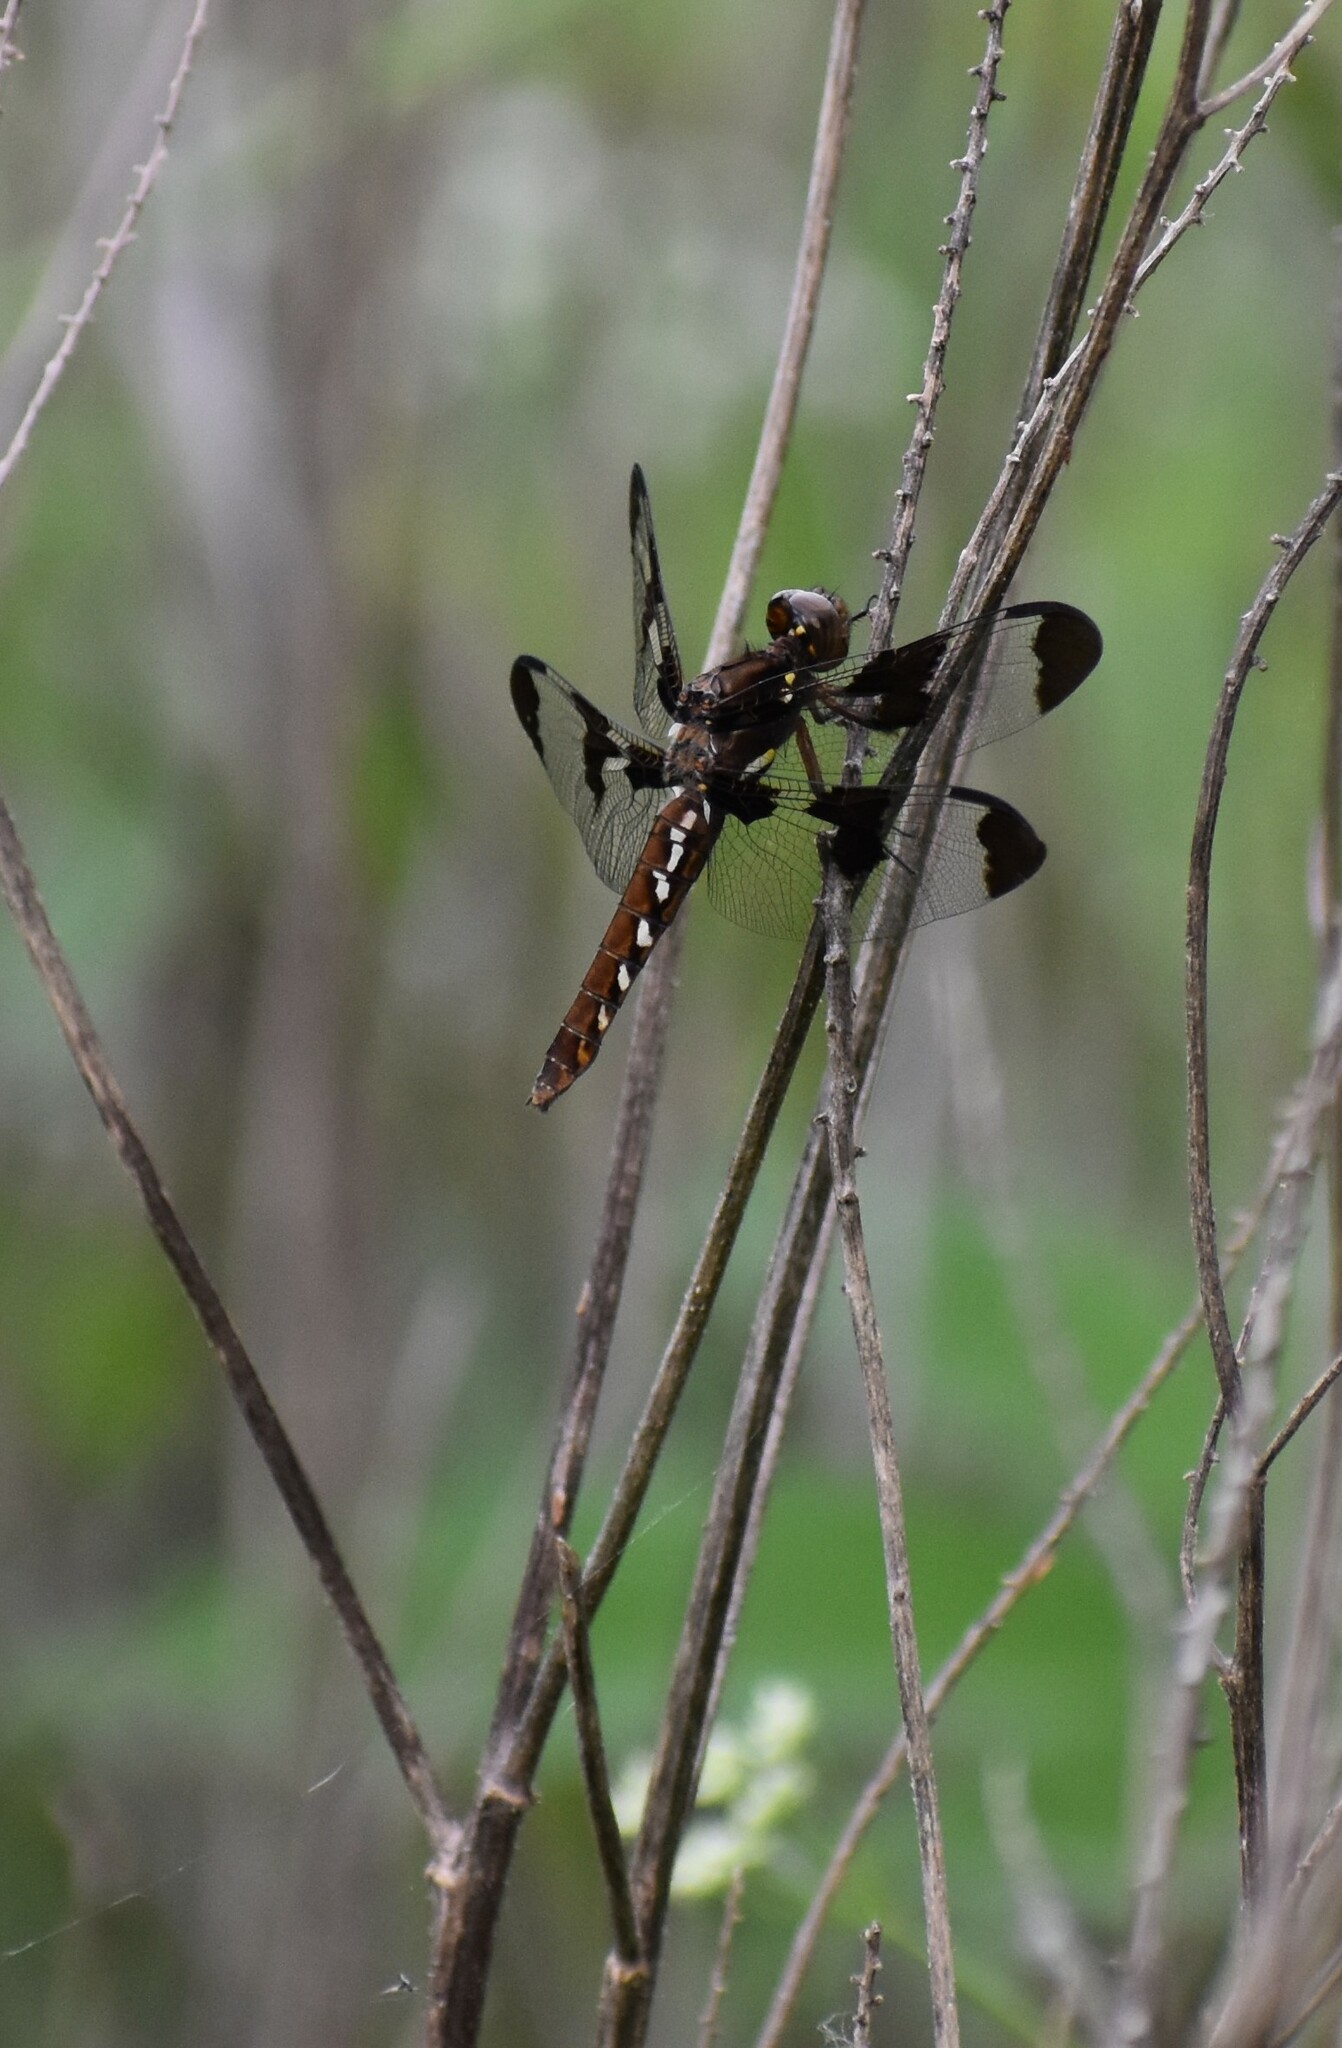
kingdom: Animalia
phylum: Arthropoda
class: Insecta
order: Odonata
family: Libellulidae
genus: Plathemis
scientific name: Plathemis lydia
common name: Common whitetail
